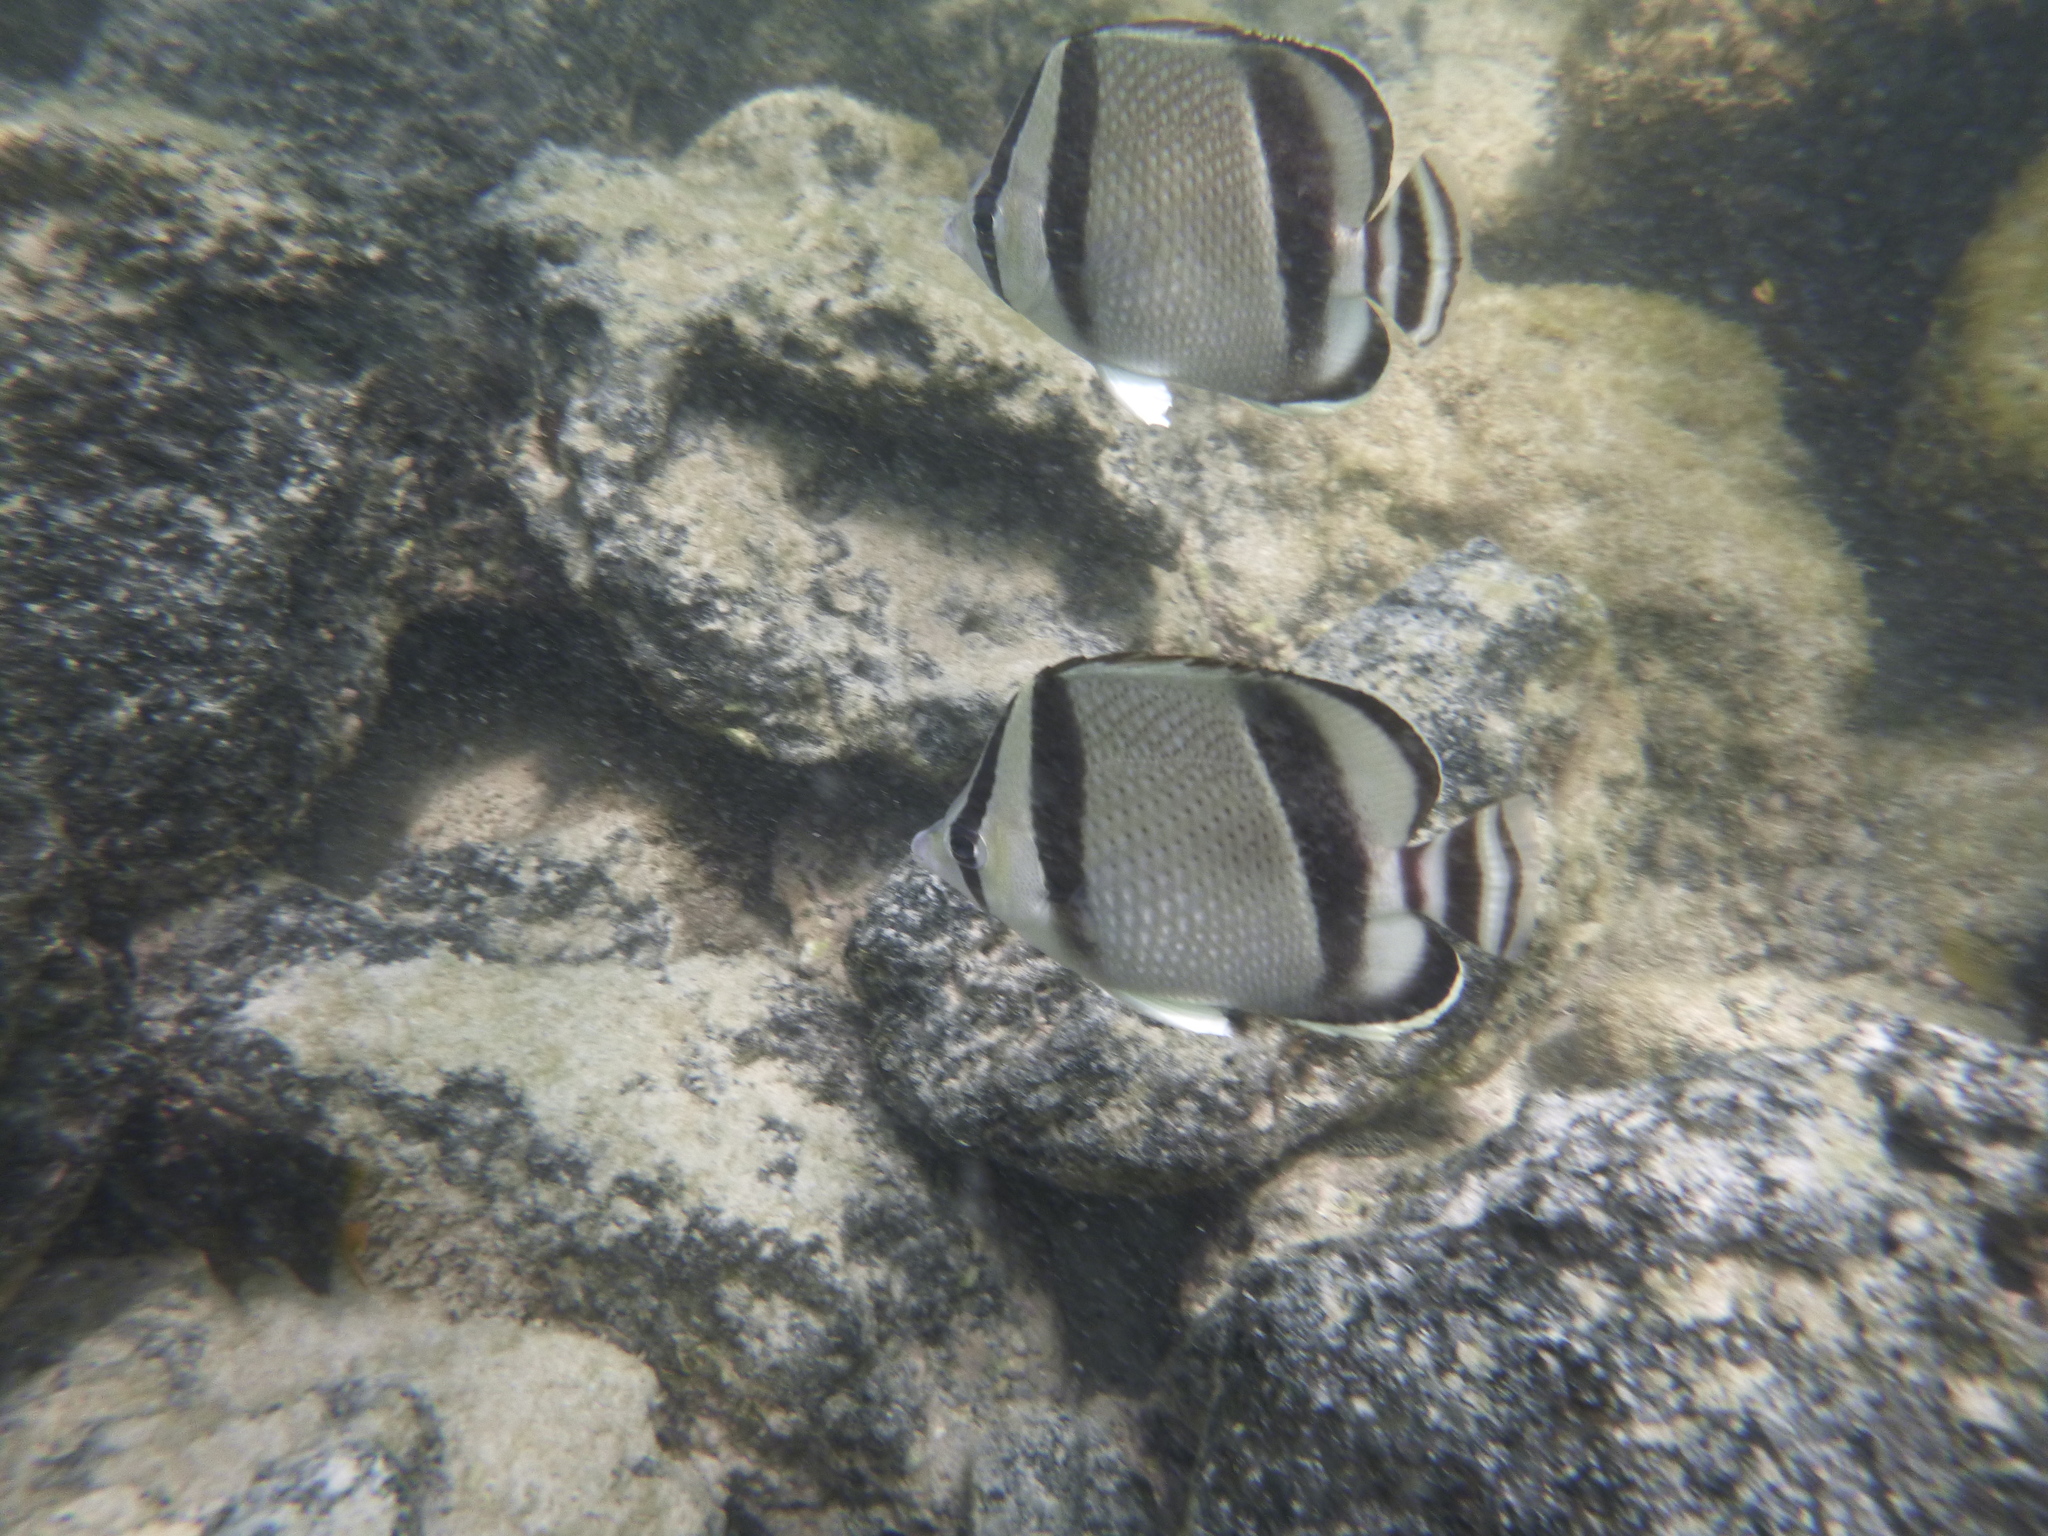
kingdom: Animalia
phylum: Chordata
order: Perciformes
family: Chaetodontidae
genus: Chaetodon
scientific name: Chaetodon humeralis
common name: Threebanded butterflyfish
